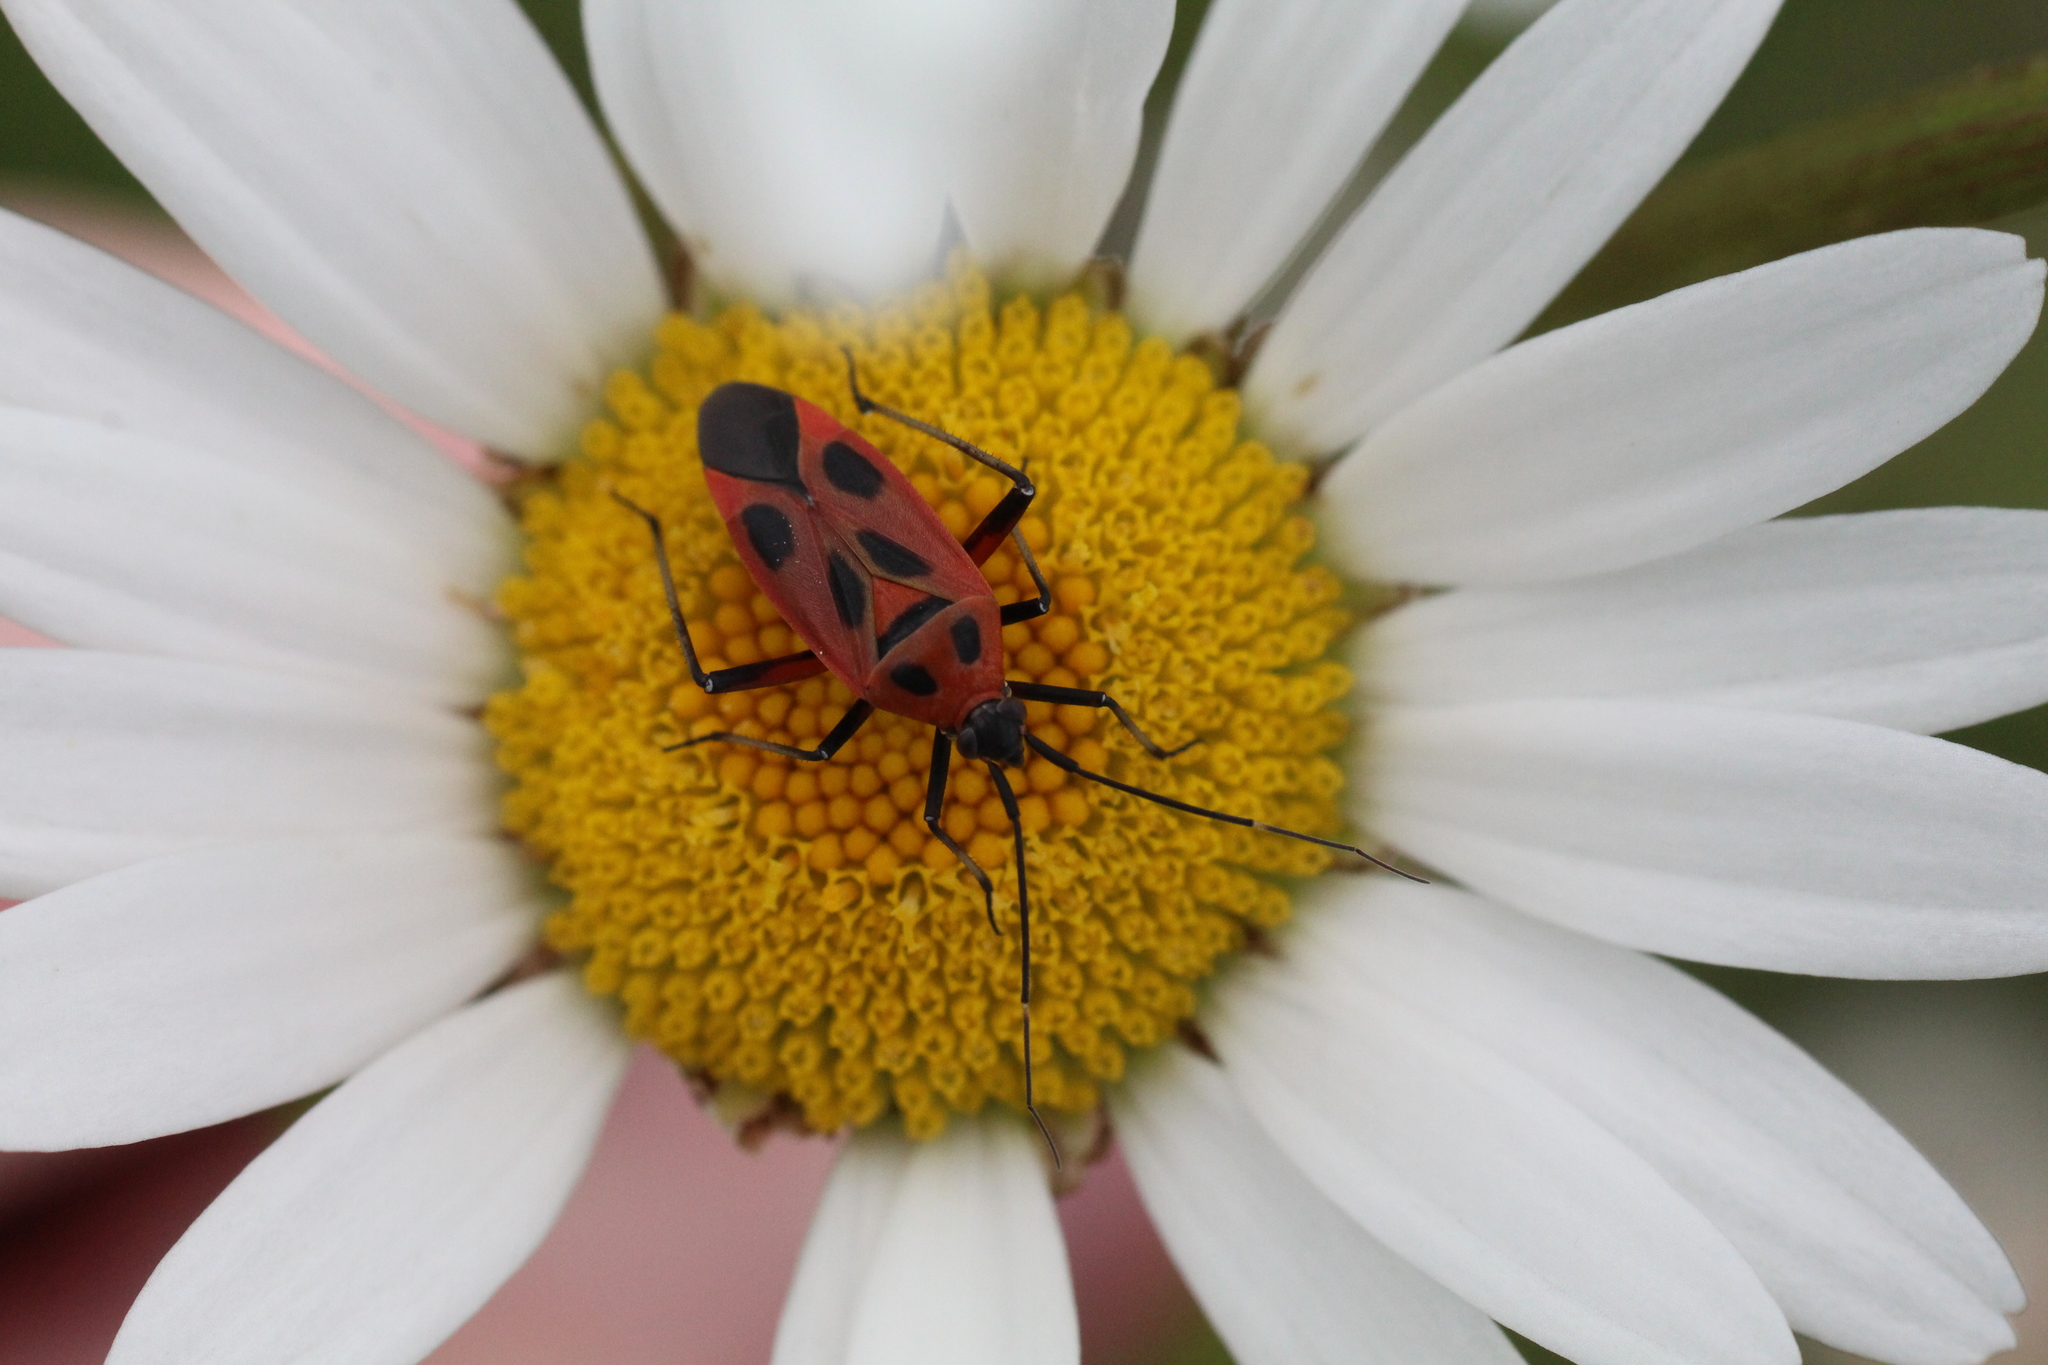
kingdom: Animalia
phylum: Arthropoda
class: Insecta
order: Hemiptera
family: Miridae
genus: Calocoris
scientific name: Calocoris nemoralis
